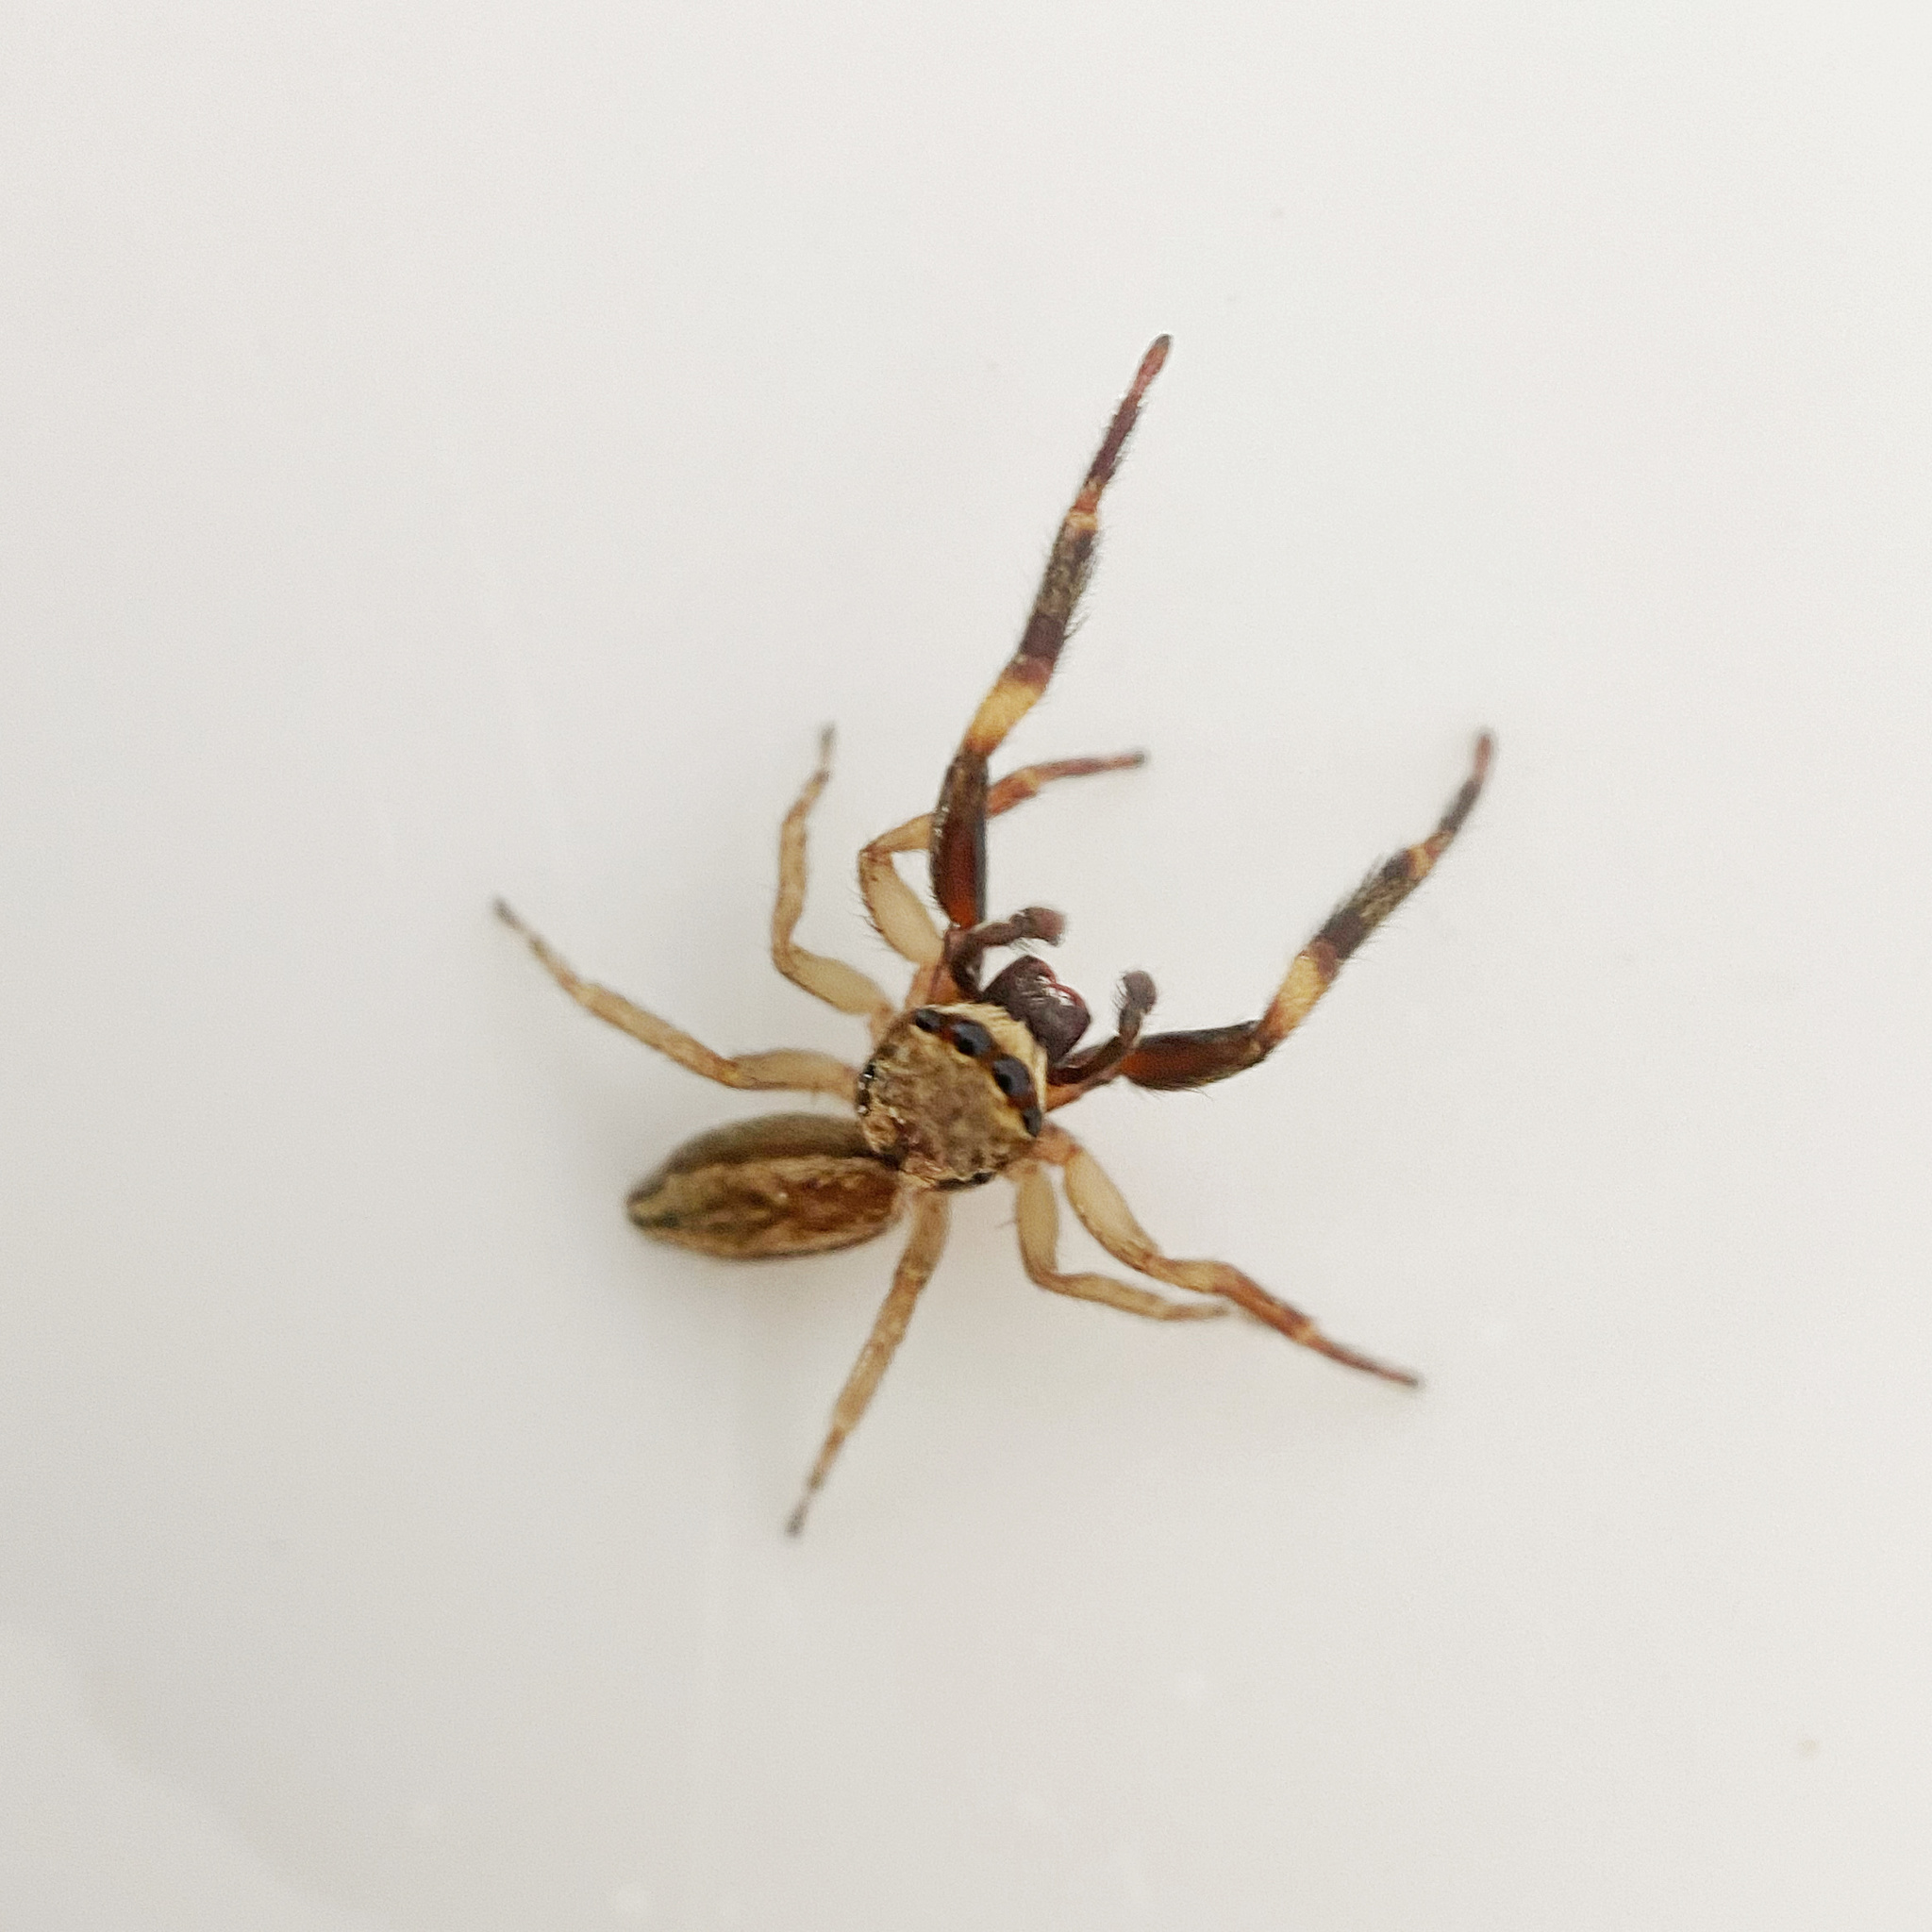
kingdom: Animalia
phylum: Arthropoda
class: Arachnida
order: Araneae
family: Salticidae
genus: Trite
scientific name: Trite auricoma
